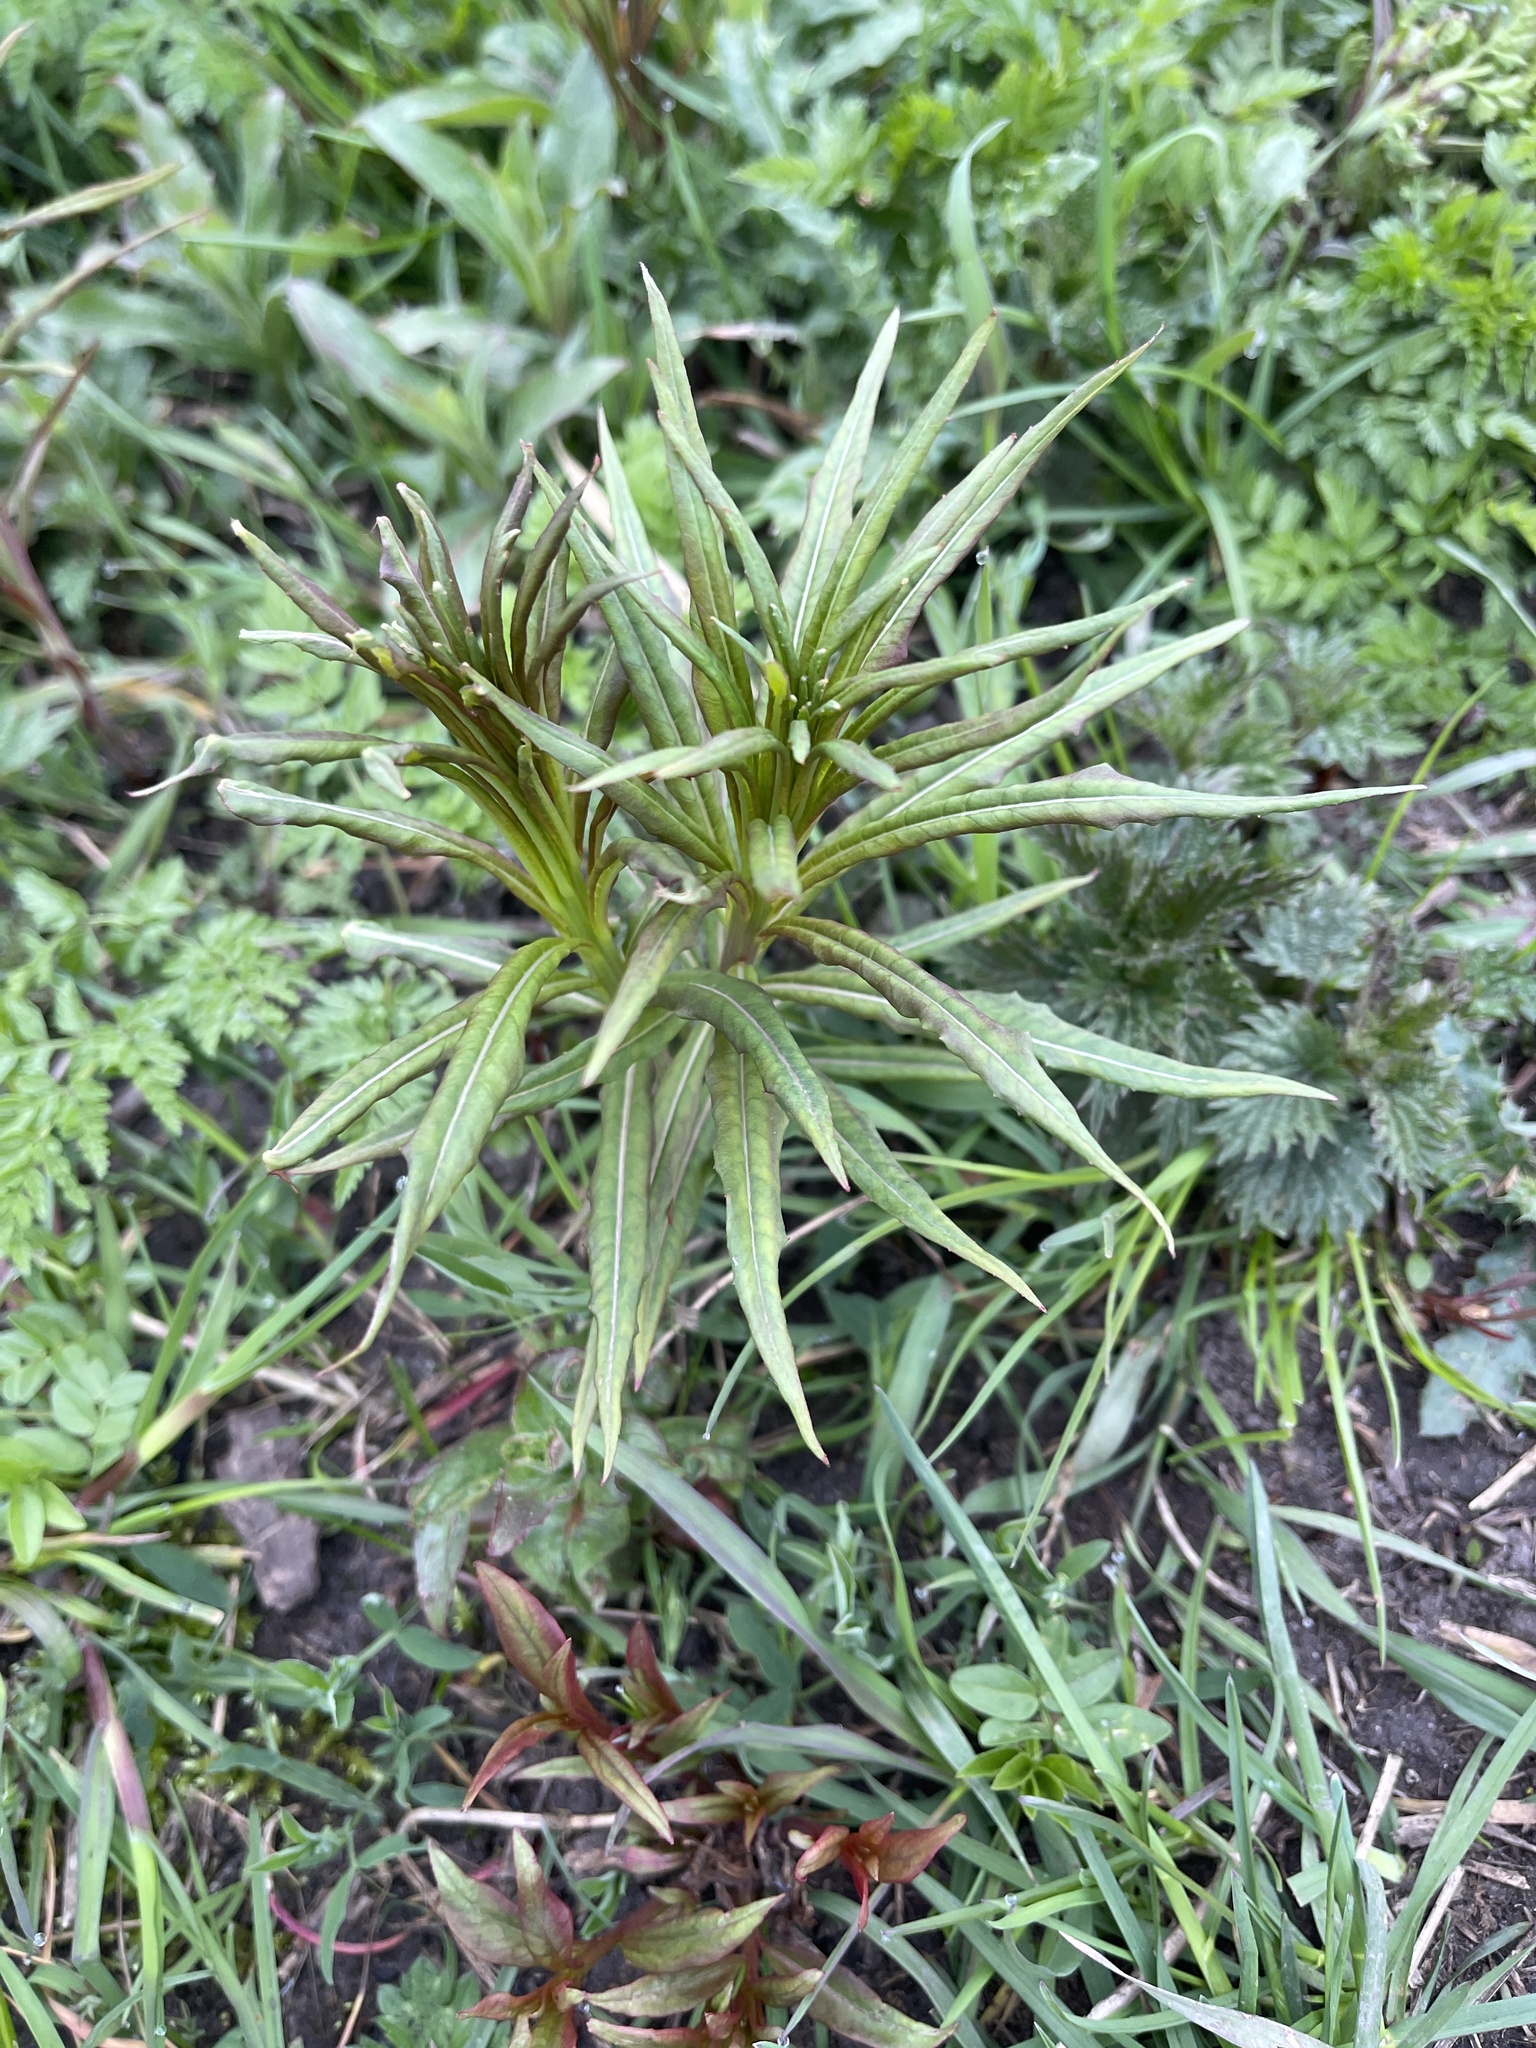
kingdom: Plantae
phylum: Tracheophyta
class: Magnoliopsida
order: Myrtales
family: Onagraceae
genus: Chamaenerion
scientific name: Chamaenerion angustifolium
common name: Fireweed
